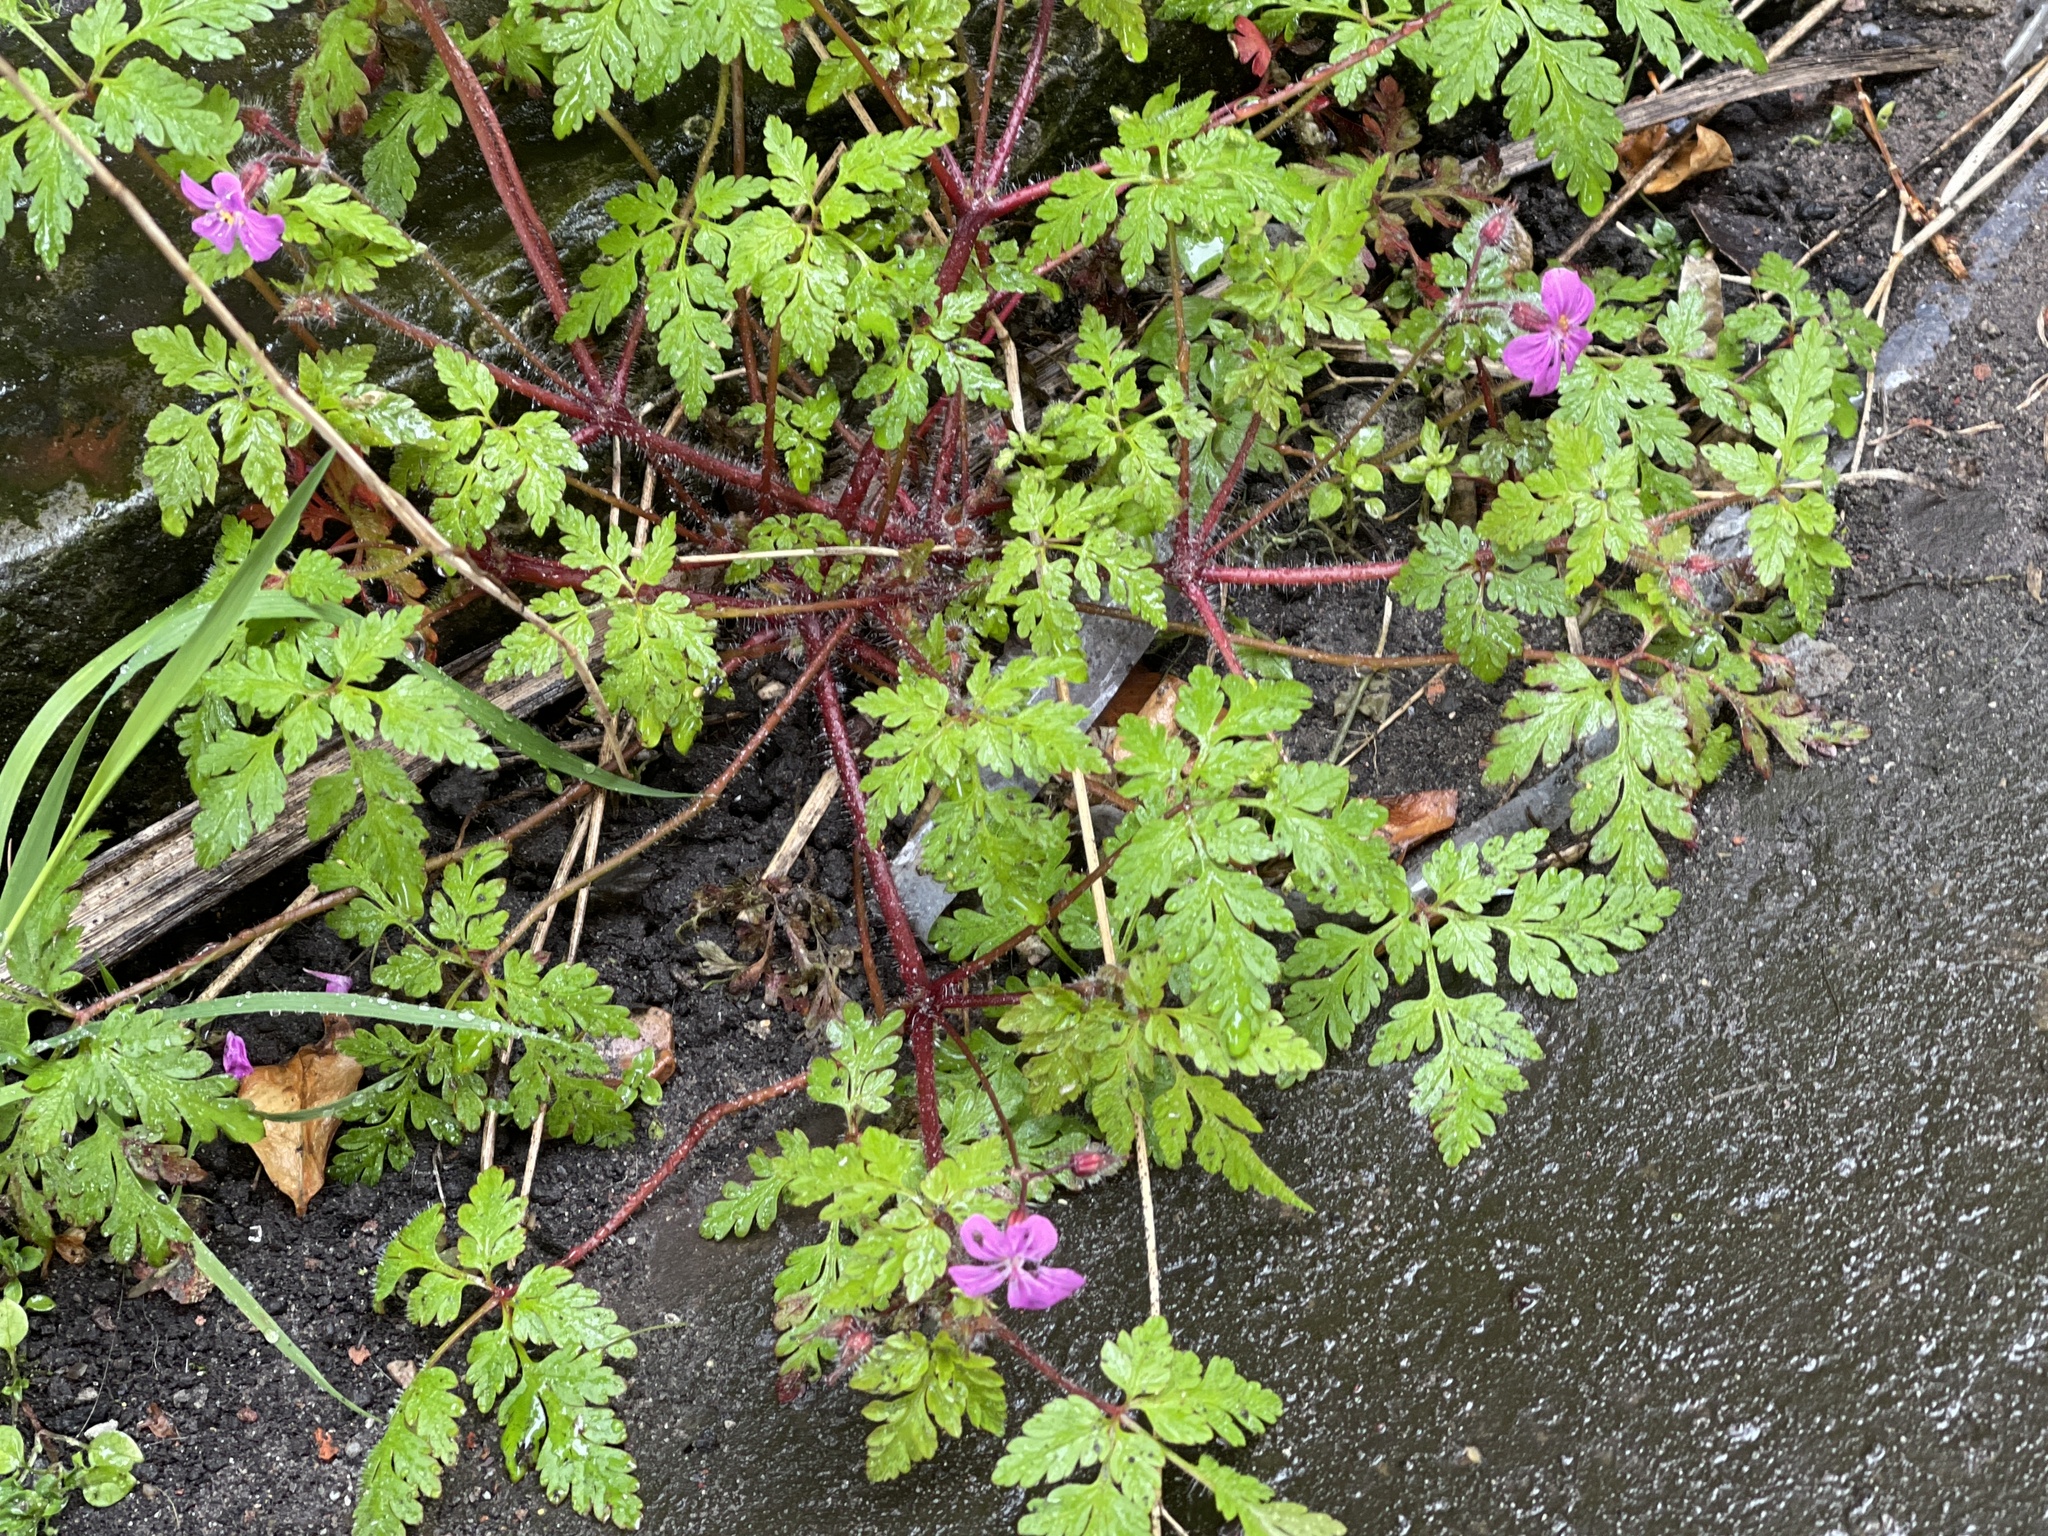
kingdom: Plantae
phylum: Tracheophyta
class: Magnoliopsida
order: Geraniales
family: Geraniaceae
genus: Geranium
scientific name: Geranium robertianum
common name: Herb-robert
